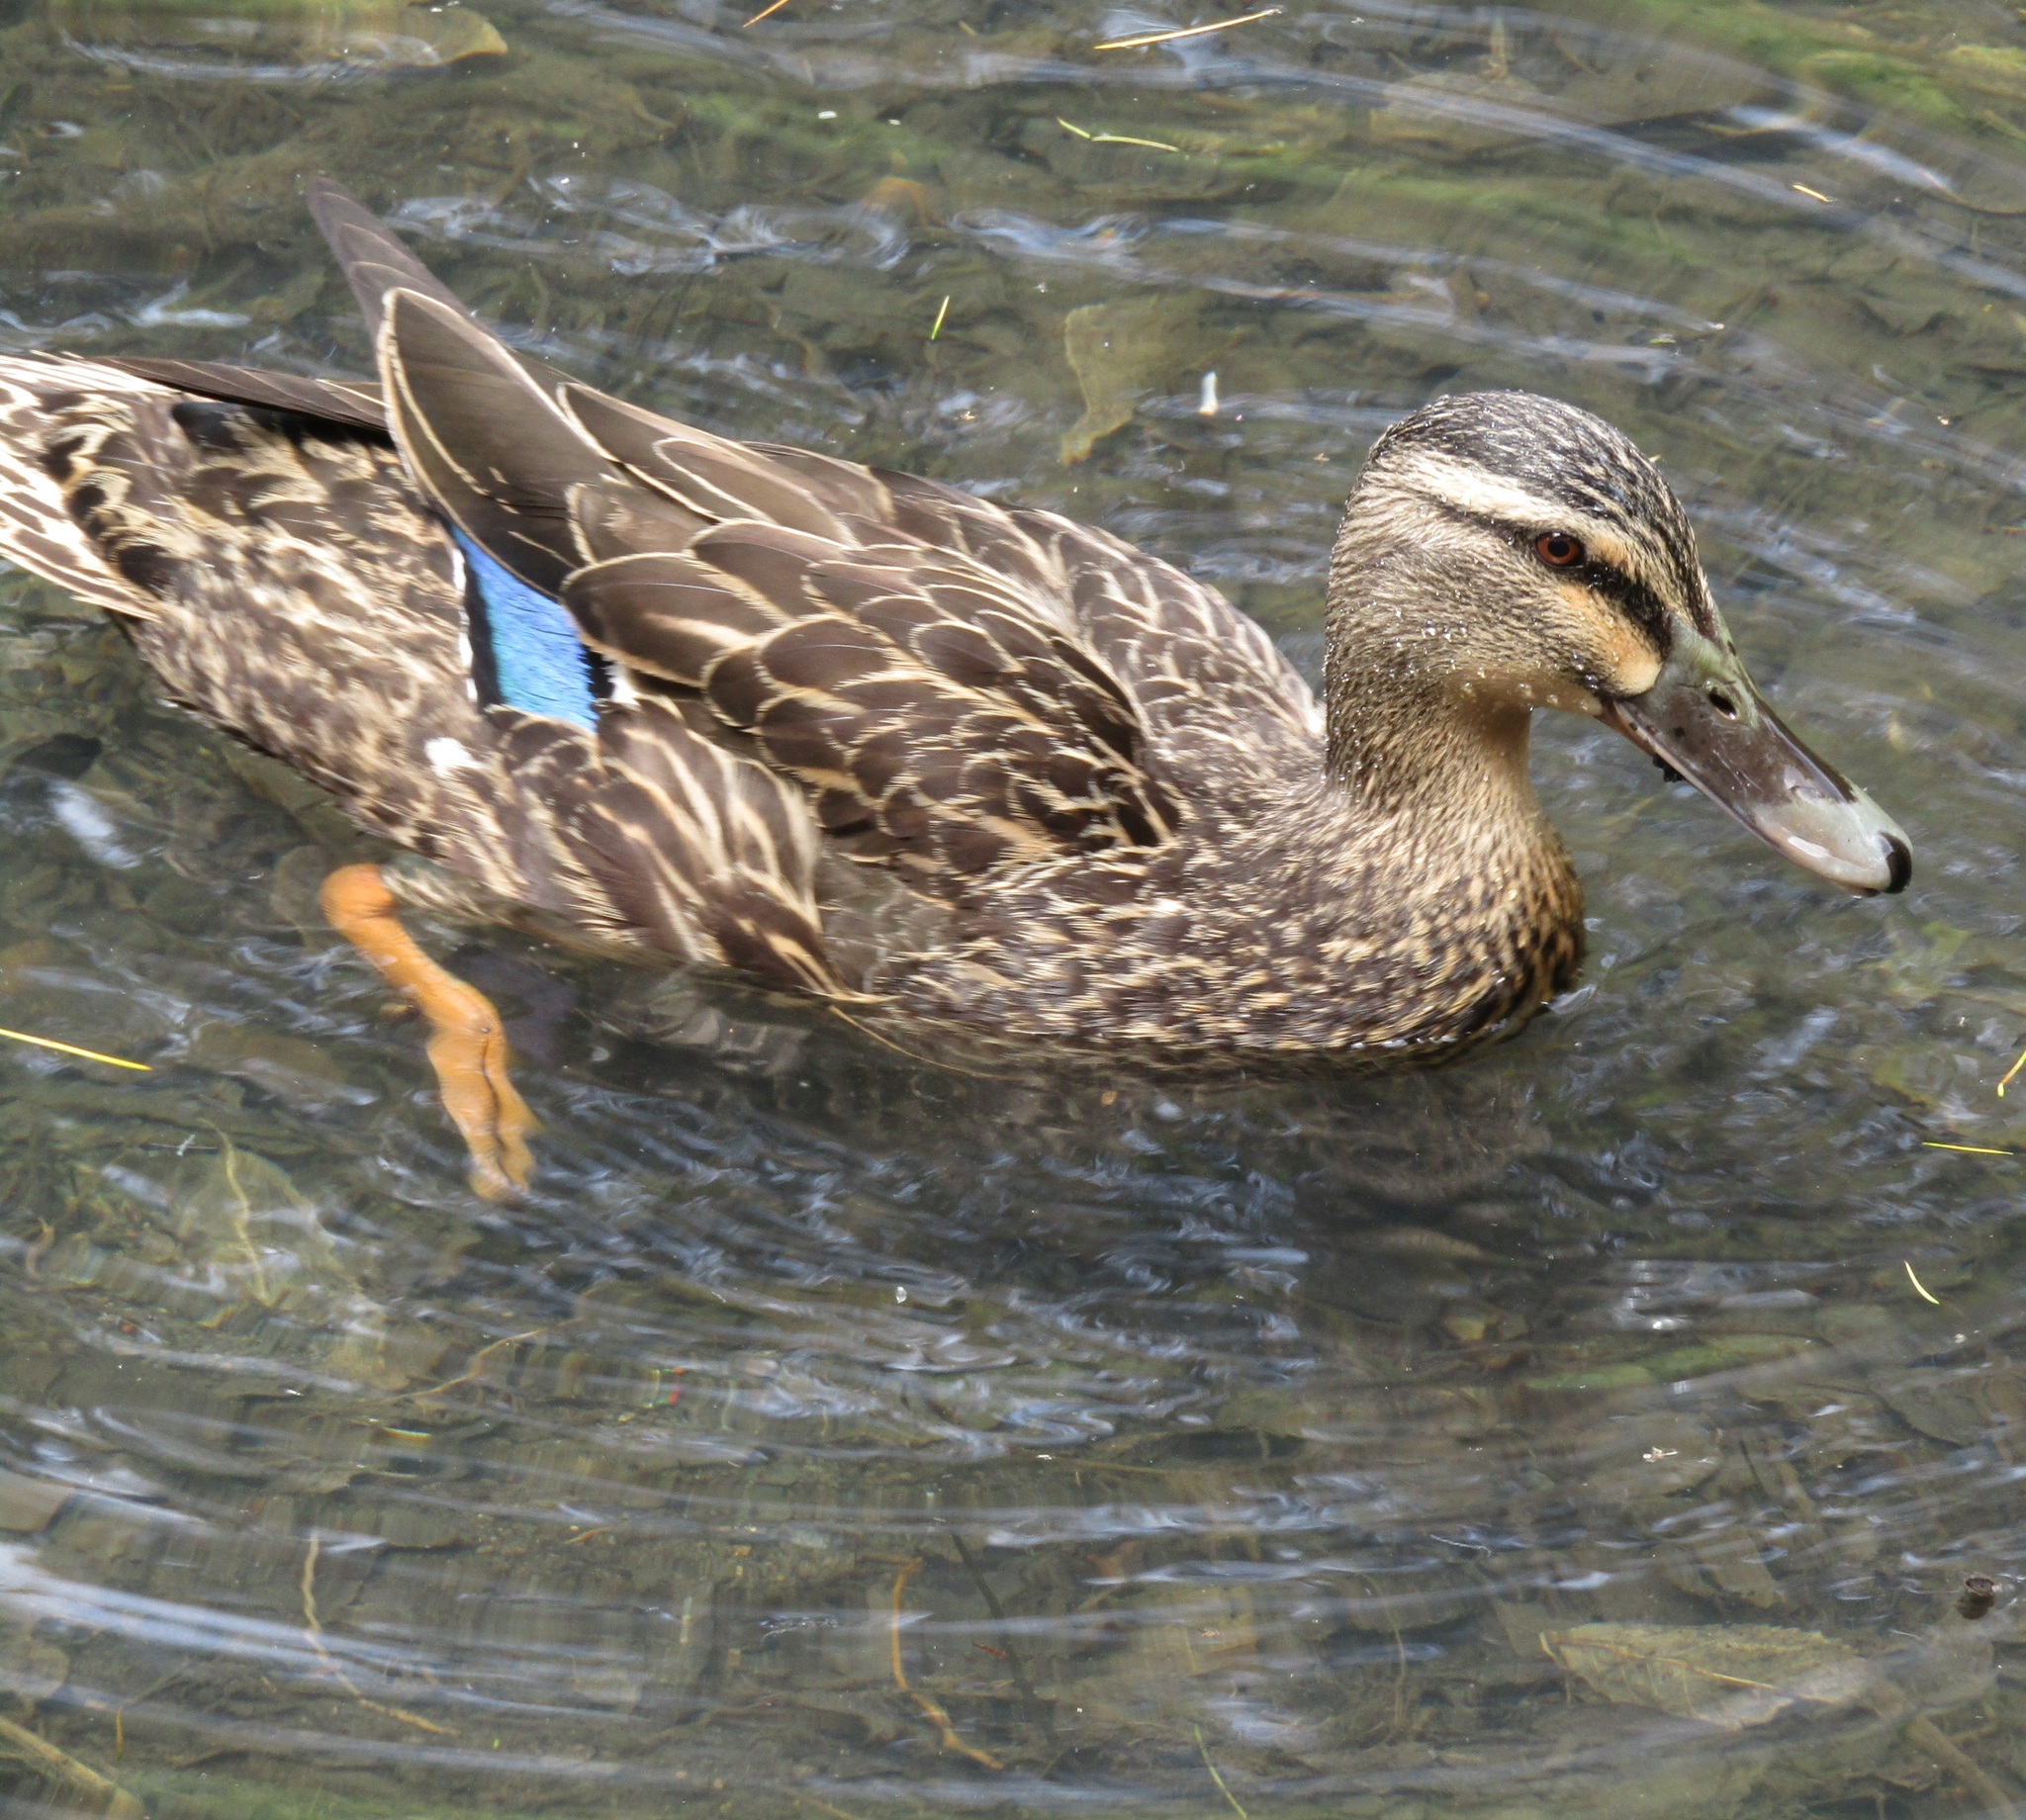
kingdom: Animalia
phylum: Chordata
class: Aves
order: Anseriformes
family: Anatidae
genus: Anas
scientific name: Anas
